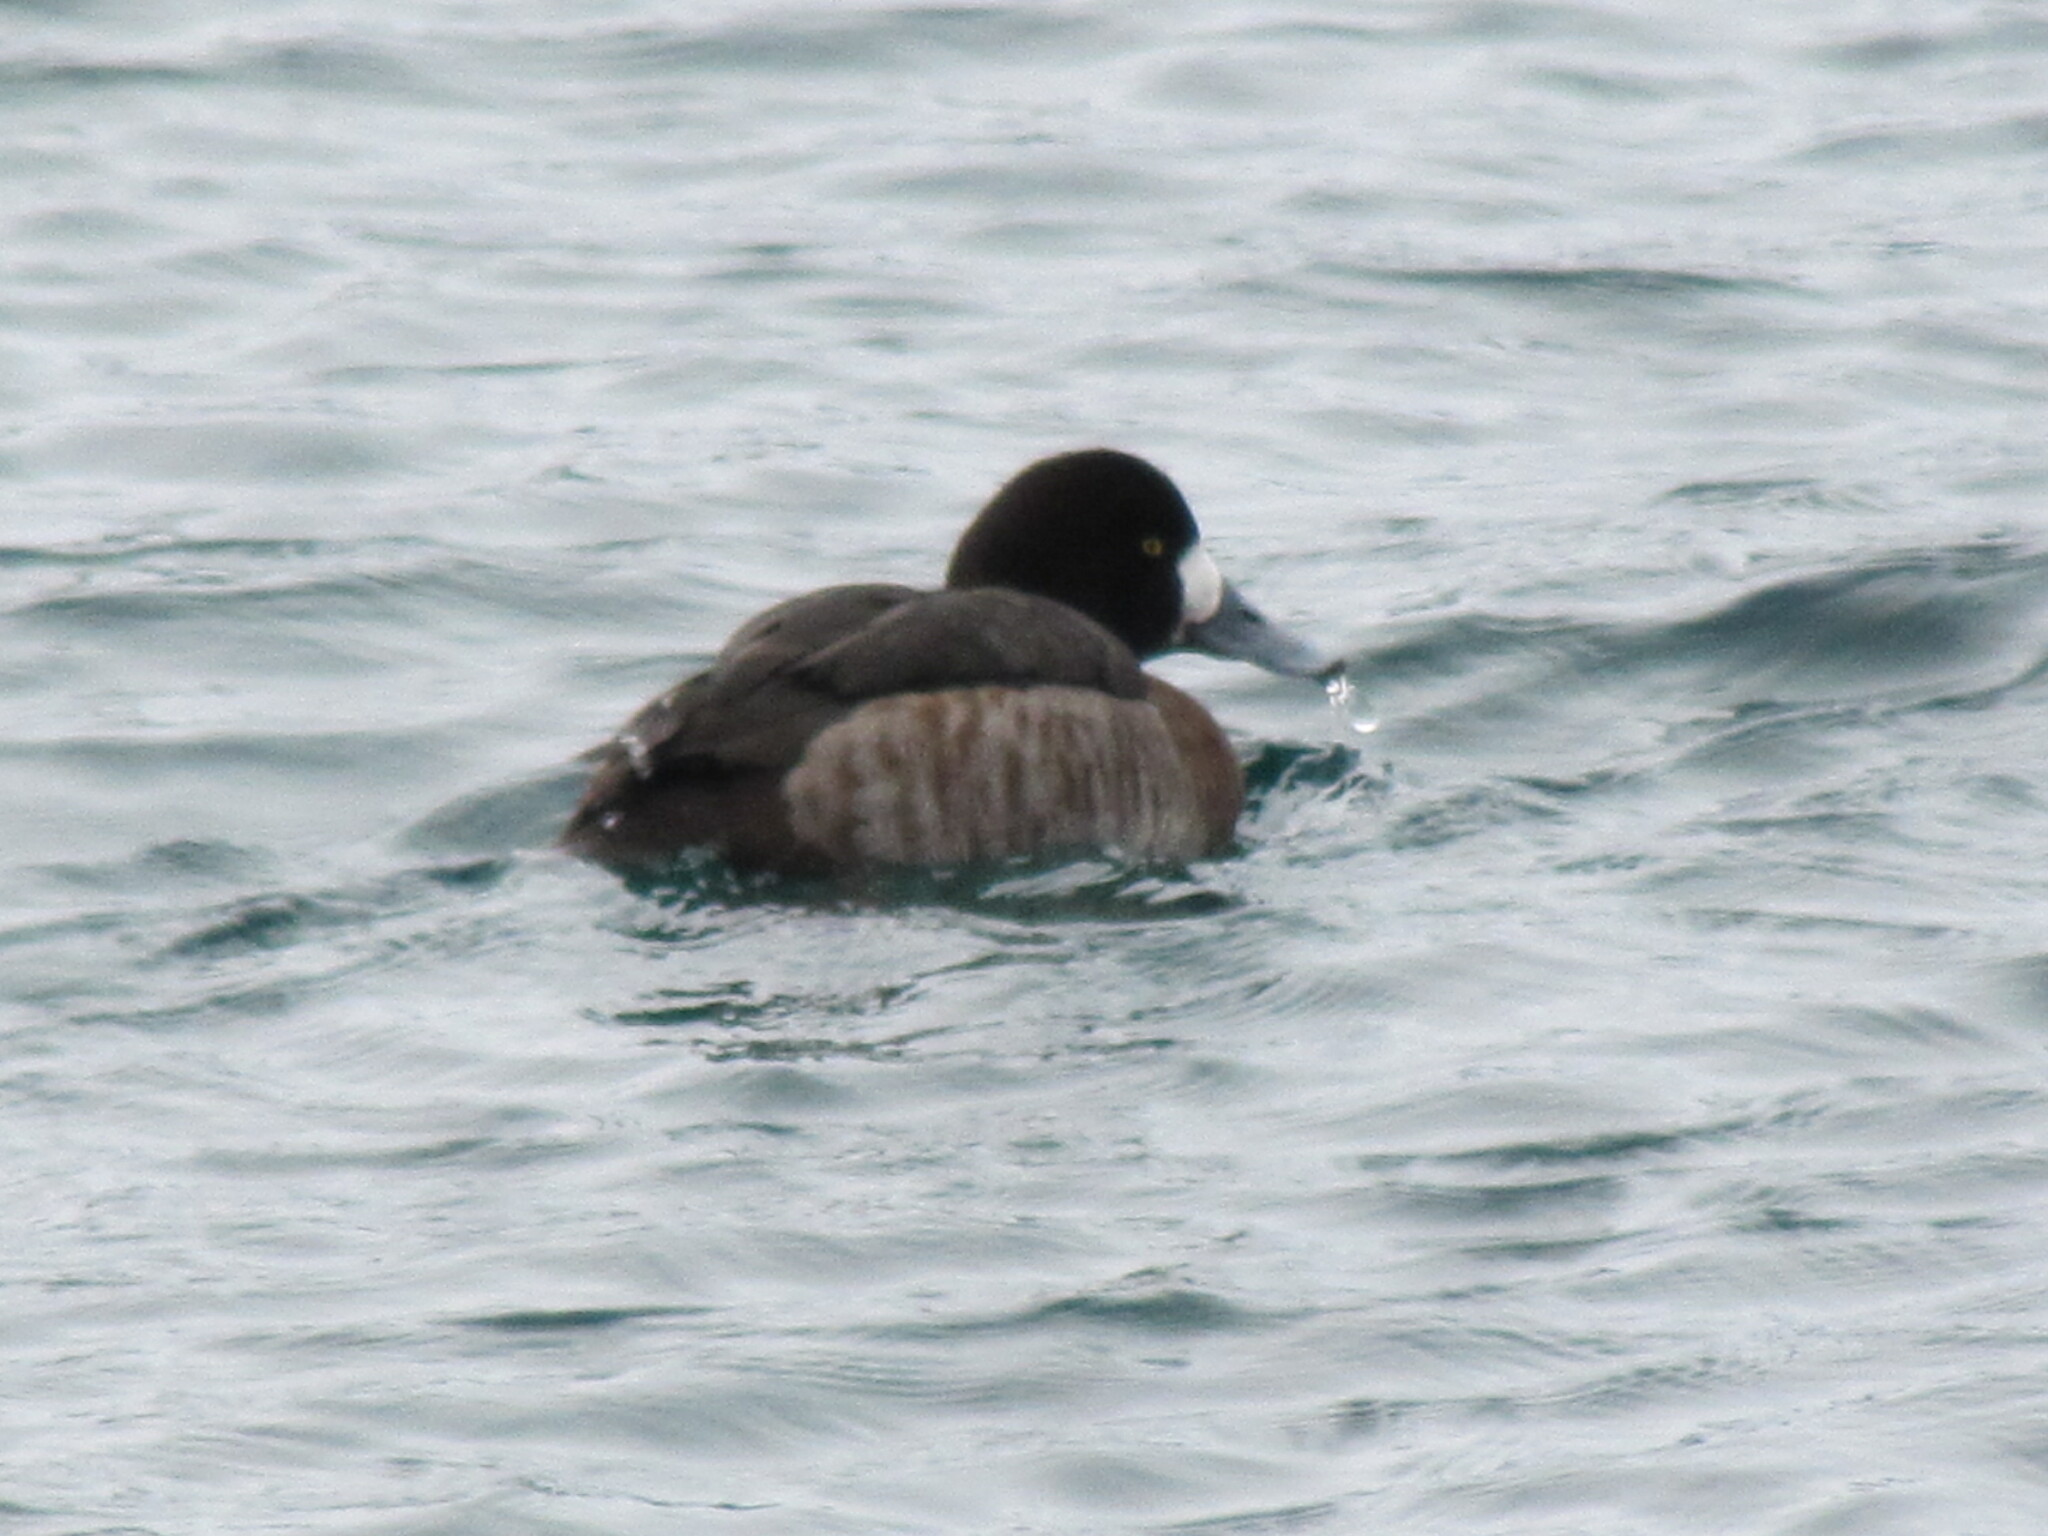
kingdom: Animalia
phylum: Chordata
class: Aves
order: Anseriformes
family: Anatidae
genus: Aythya
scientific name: Aythya marila
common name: Greater scaup
